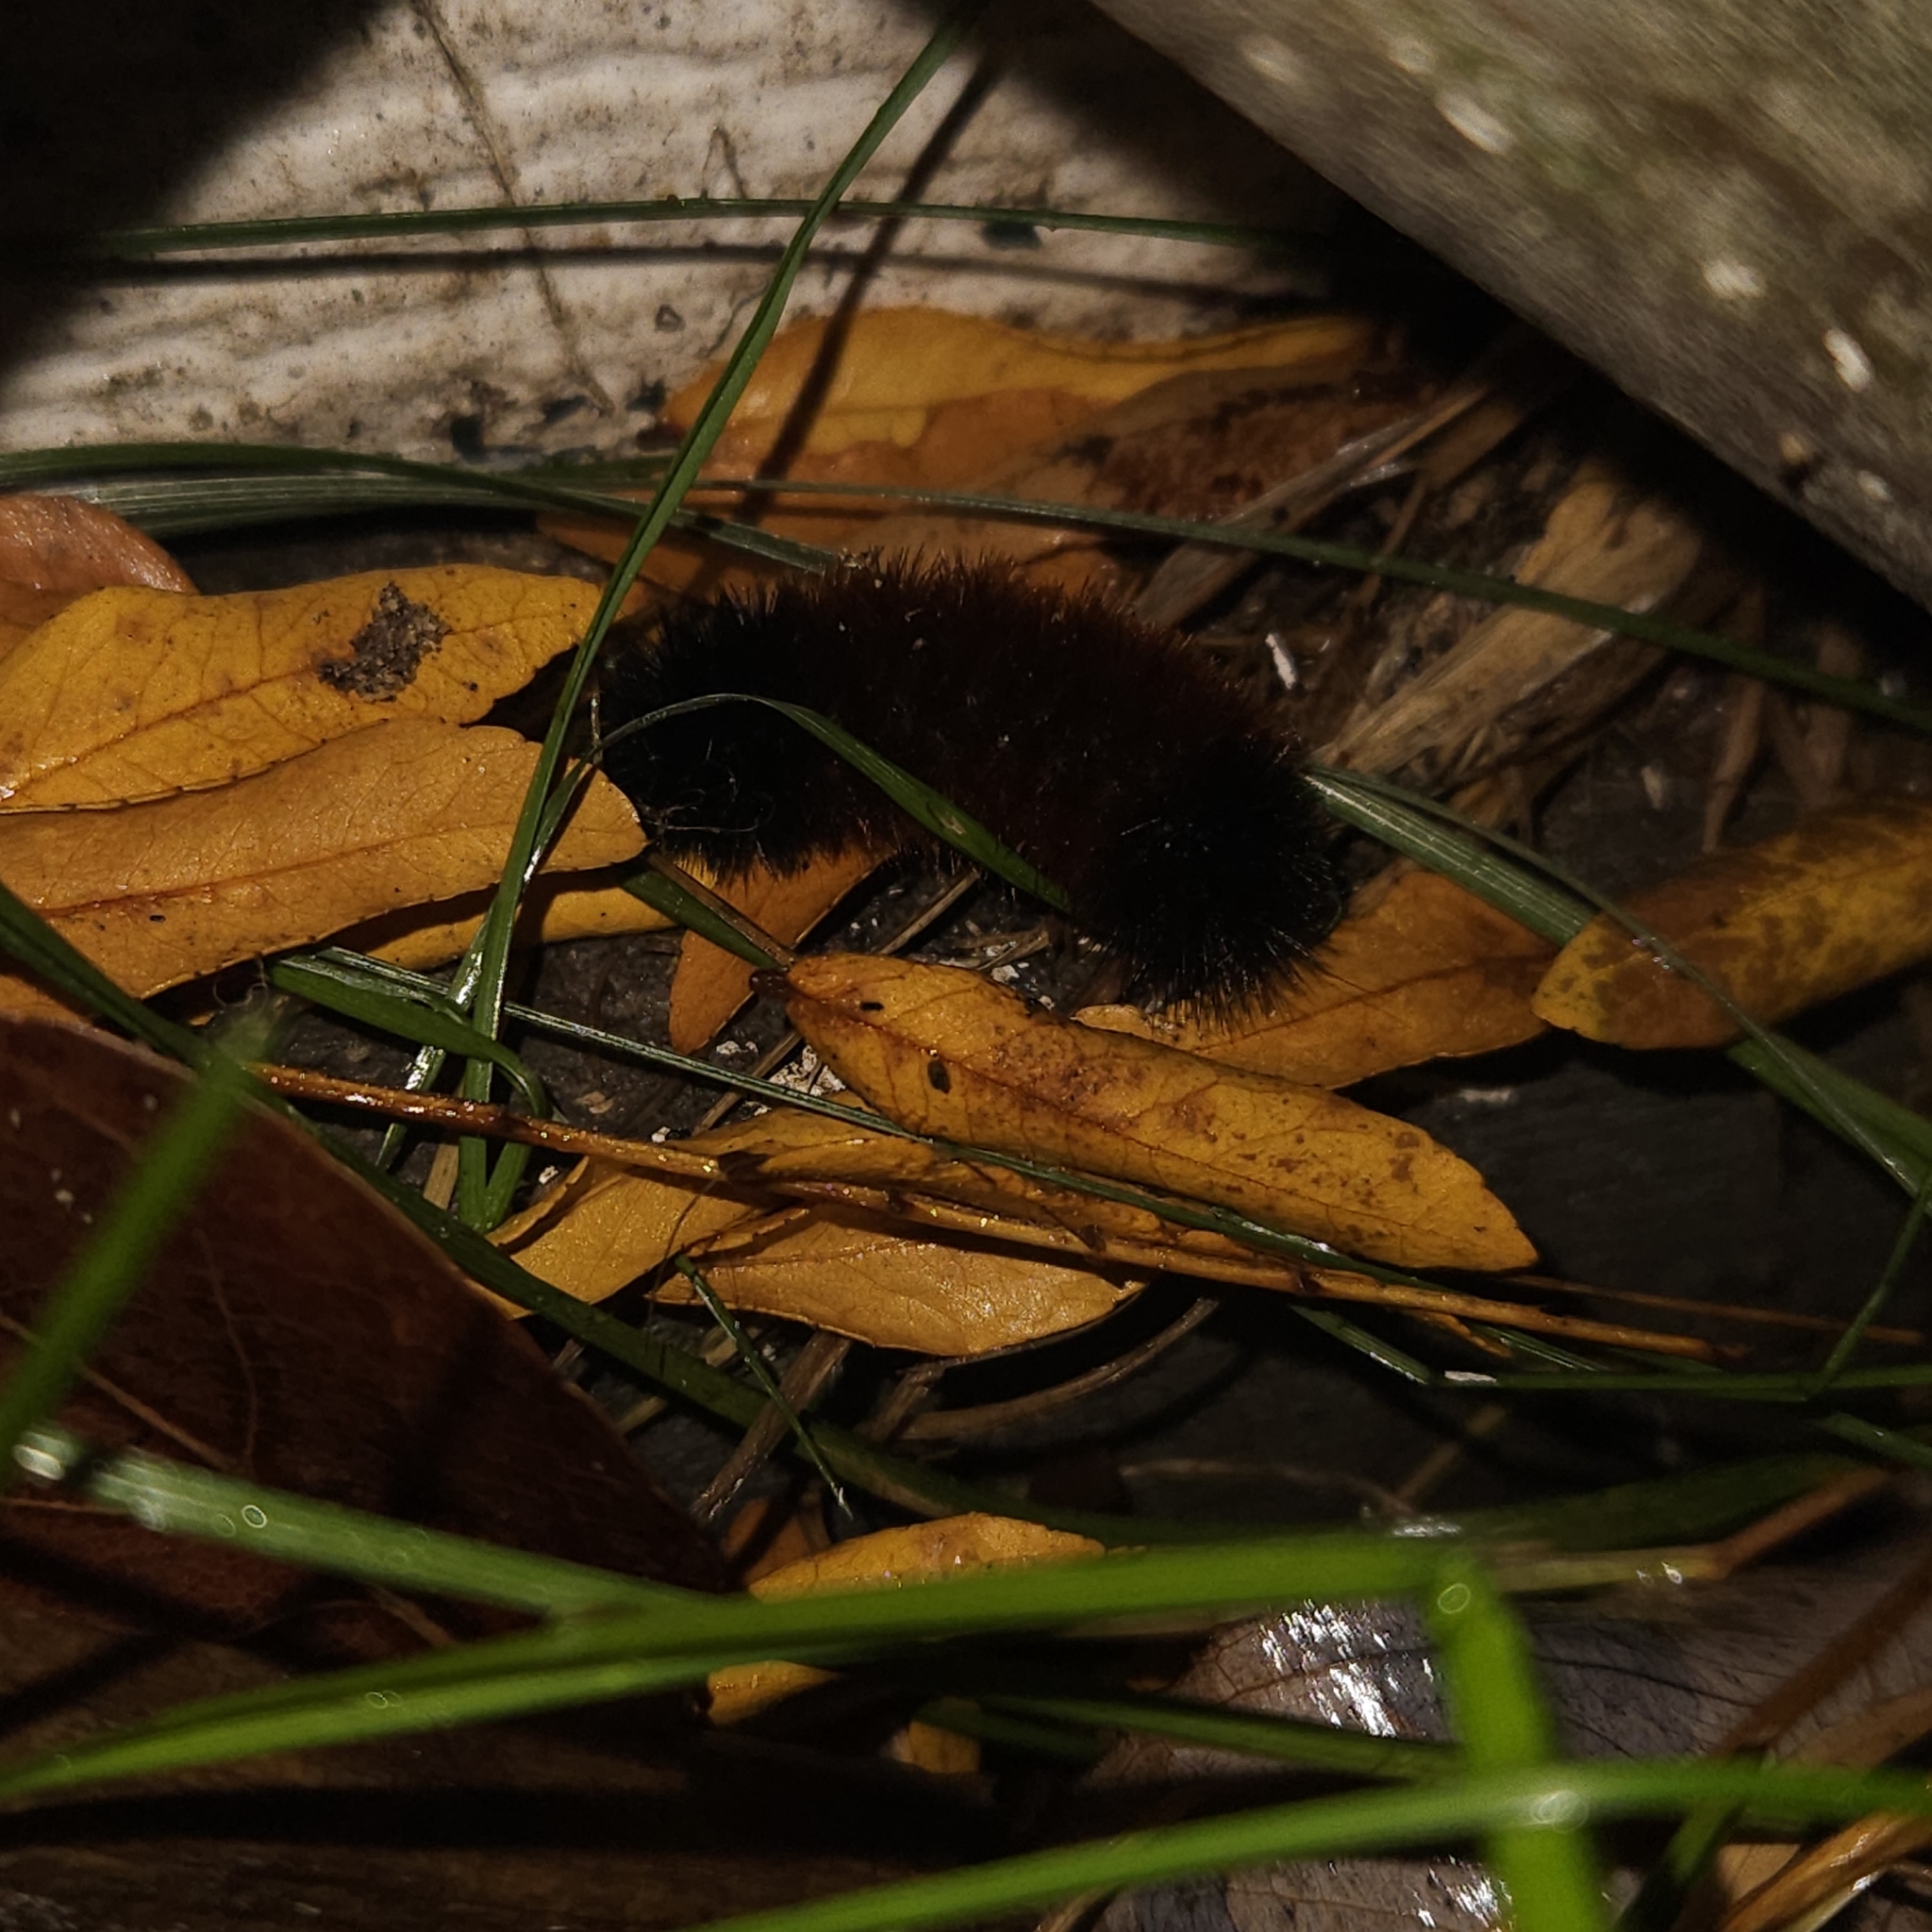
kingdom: Animalia
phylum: Arthropoda
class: Insecta
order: Lepidoptera
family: Erebidae
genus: Pyrrharctia
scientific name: Pyrrharctia isabella
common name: Isabella tiger moth
